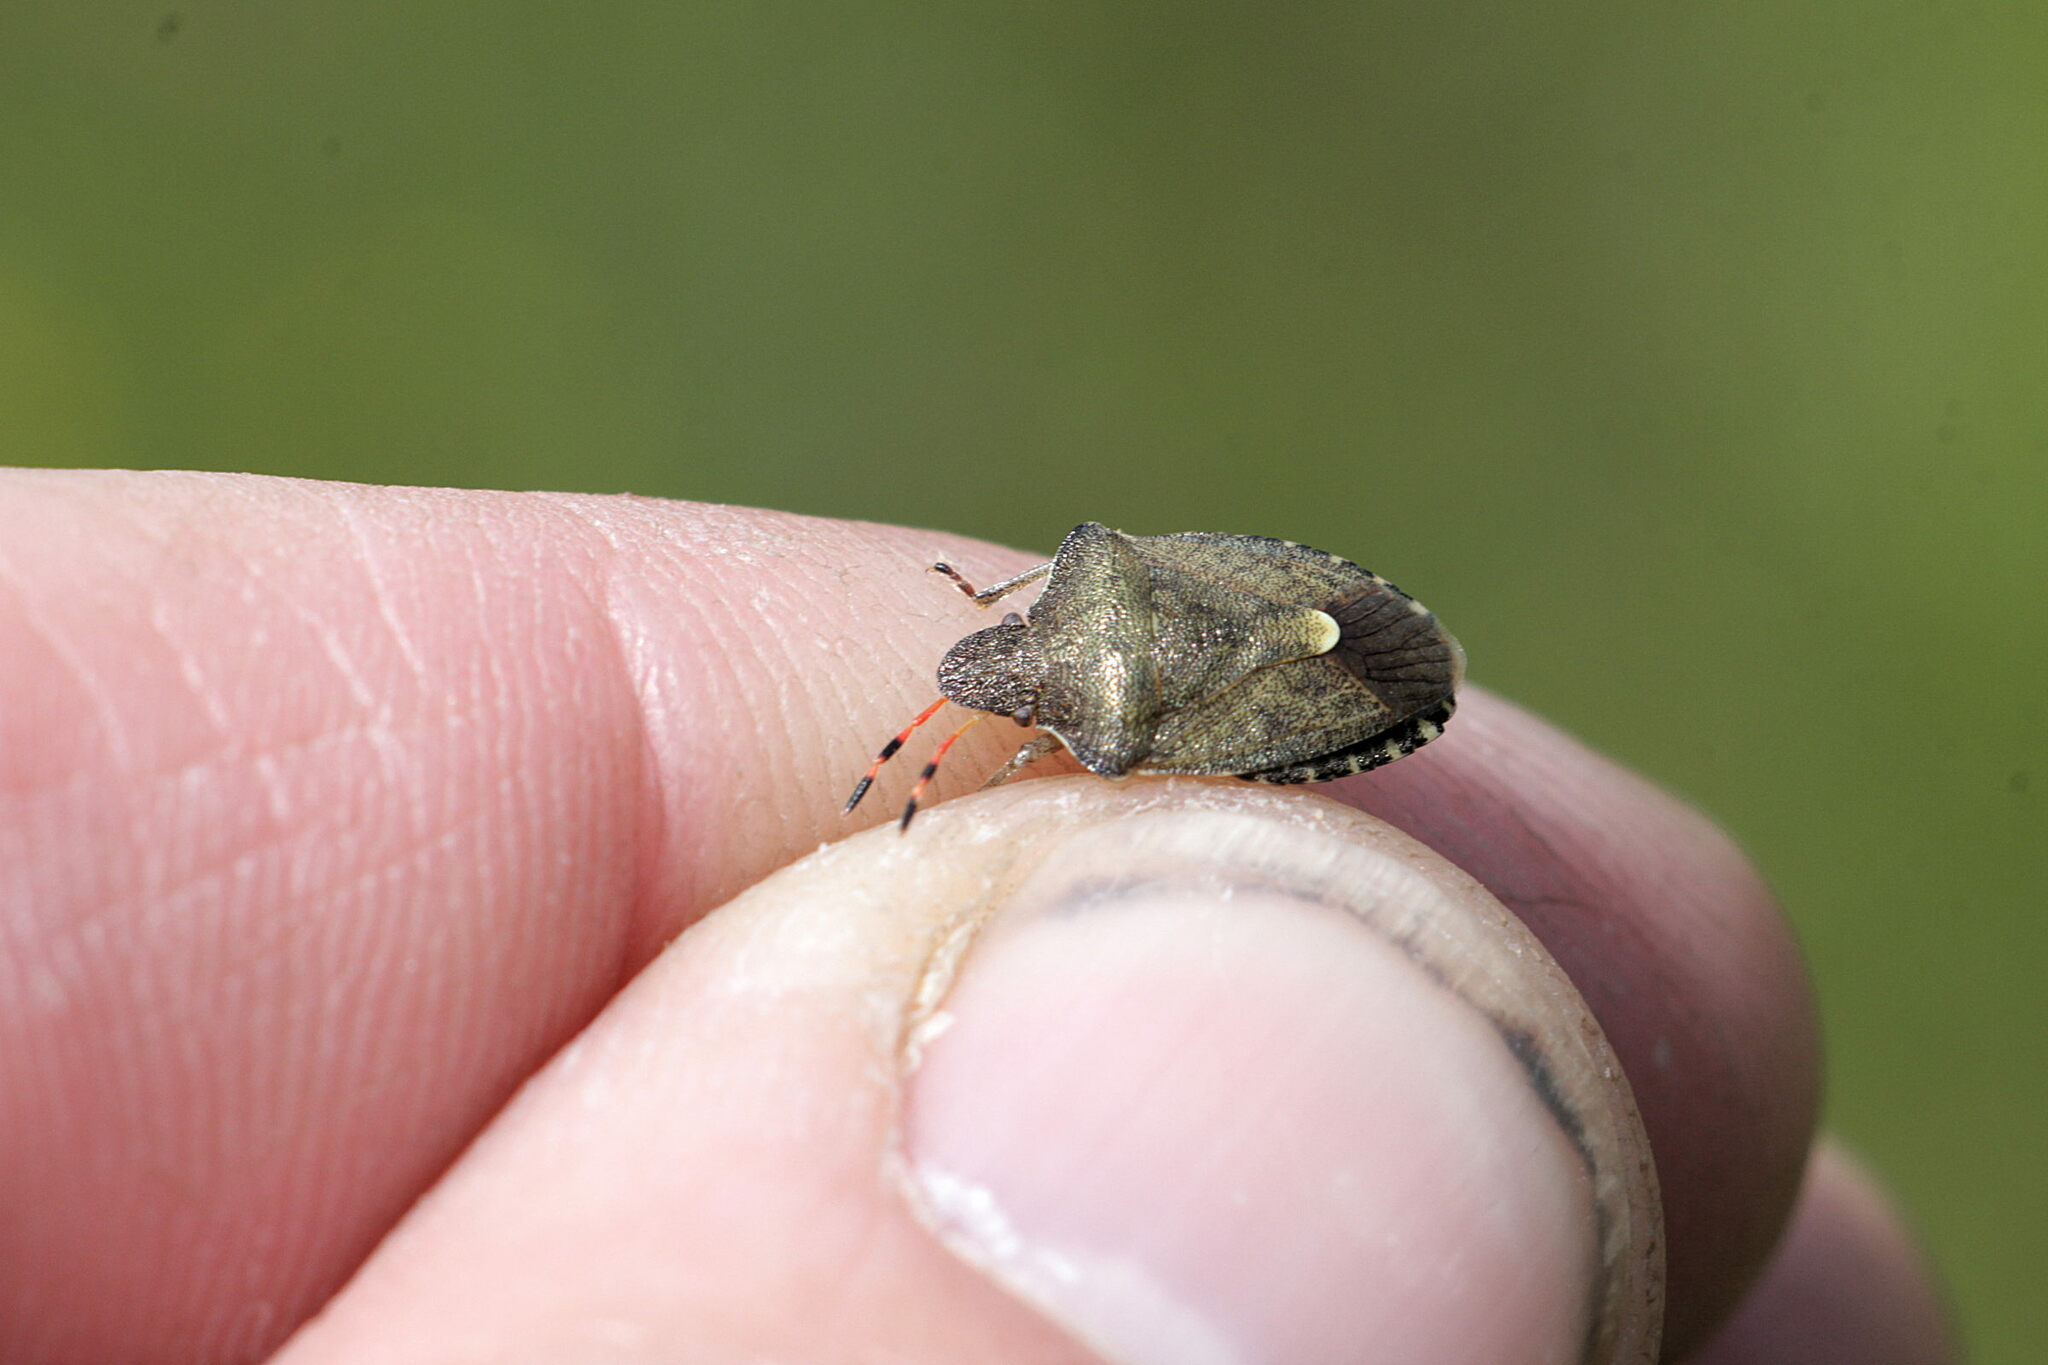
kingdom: Animalia
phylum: Arthropoda
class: Insecta
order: Hemiptera
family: Pentatomidae
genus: Holcostethus
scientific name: Holcostethus strictus
